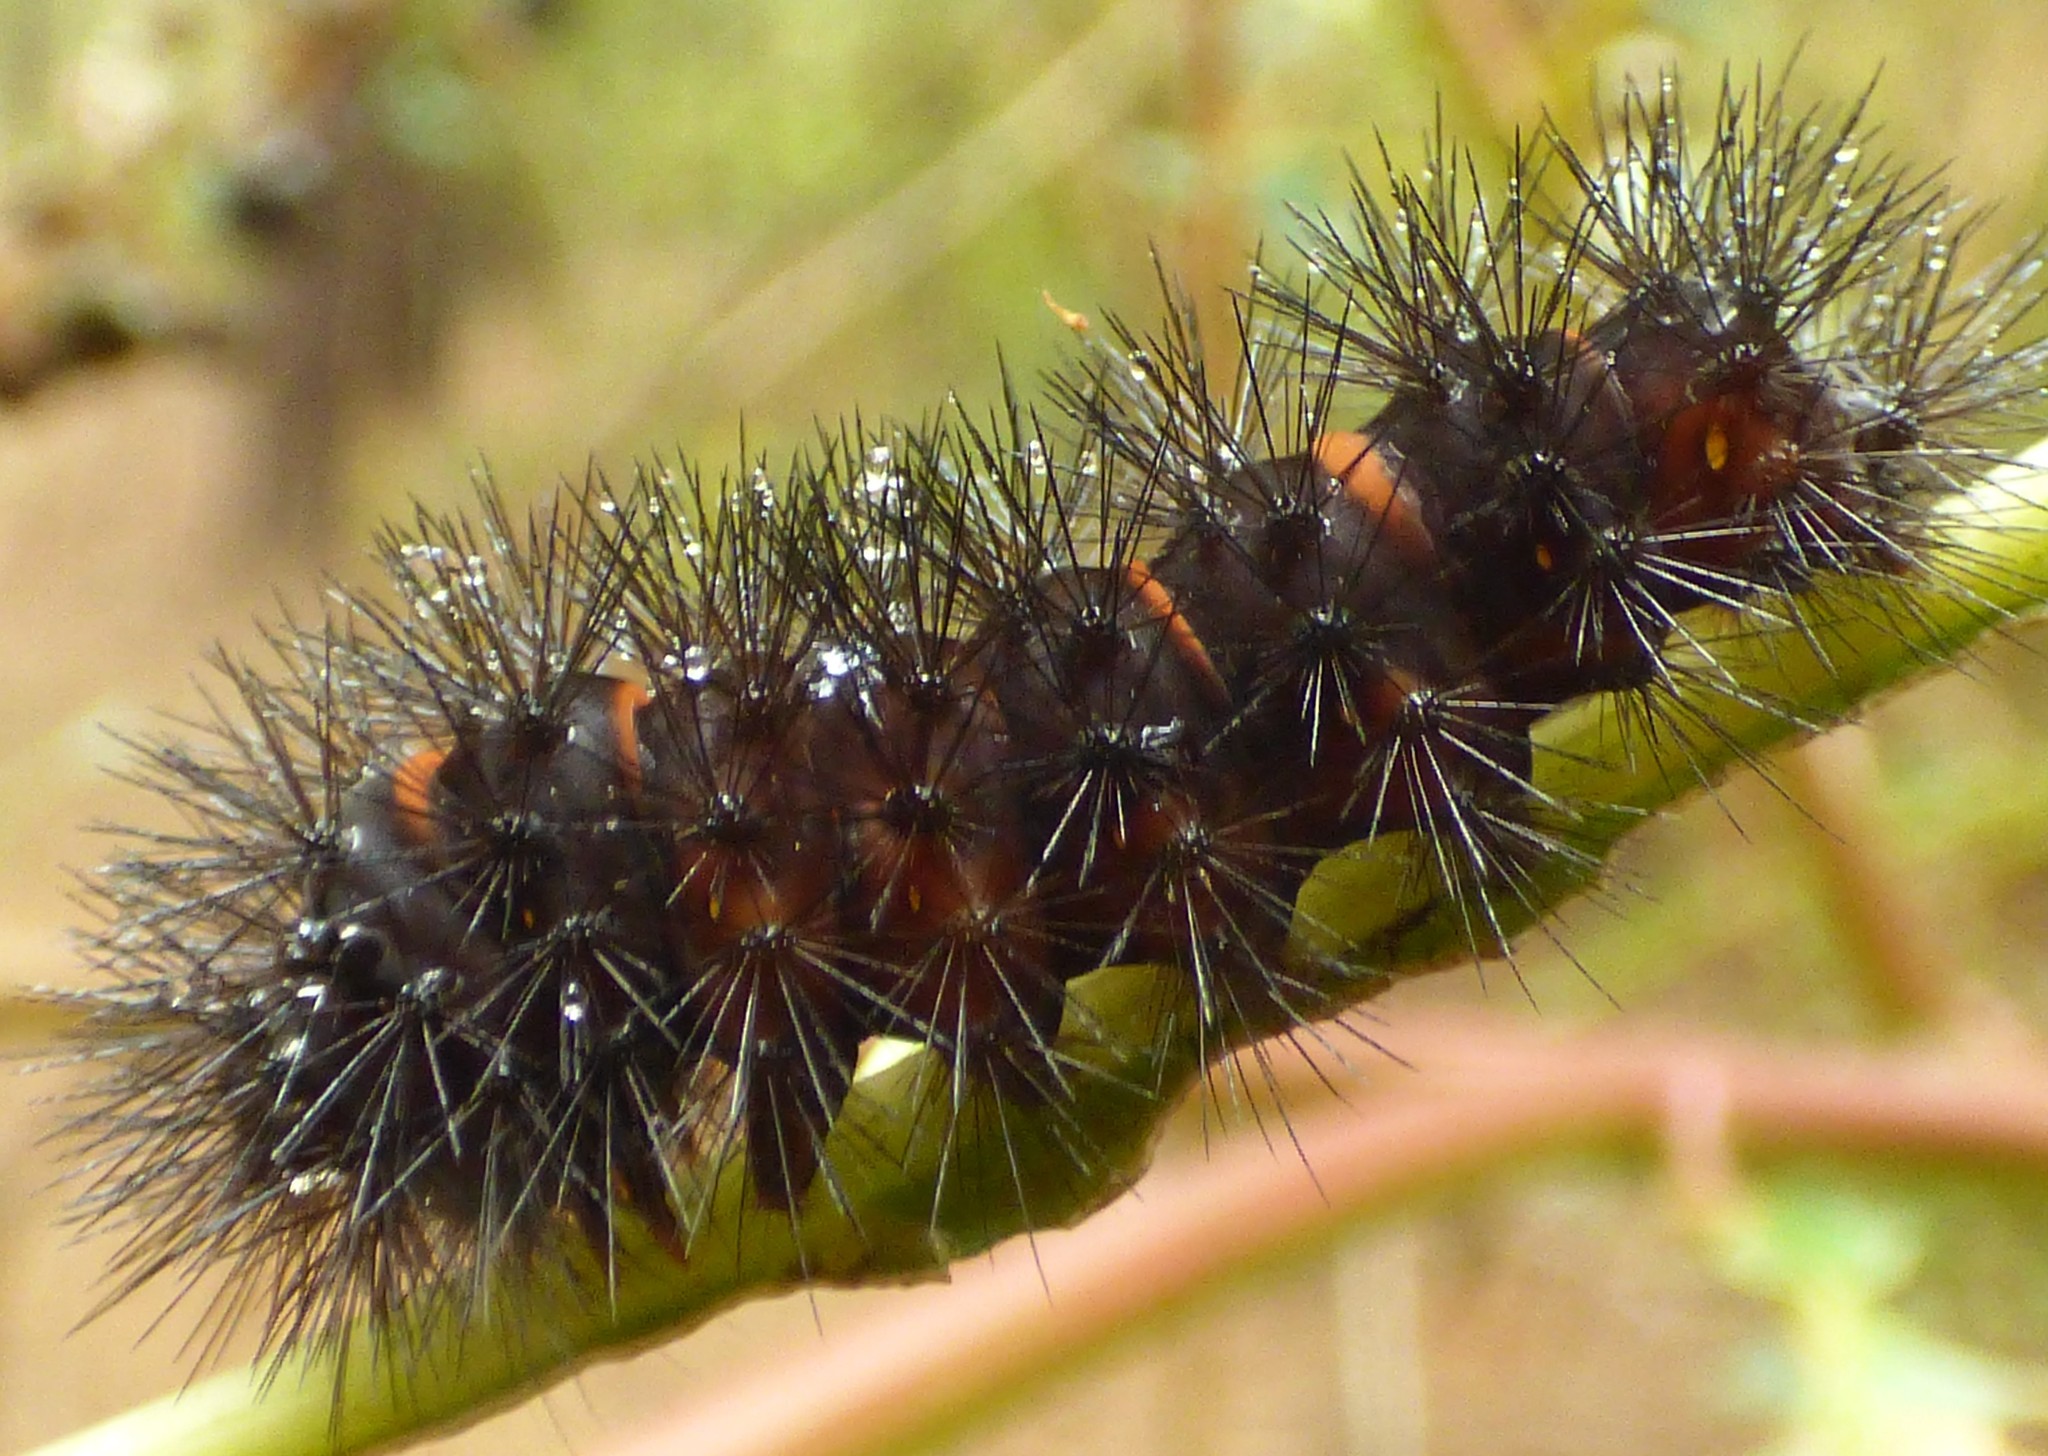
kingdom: Animalia
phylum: Arthropoda
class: Insecta
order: Lepidoptera
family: Erebidae
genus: Hypercompe
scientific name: Hypercompe scribonia
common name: Giant leopard moth
